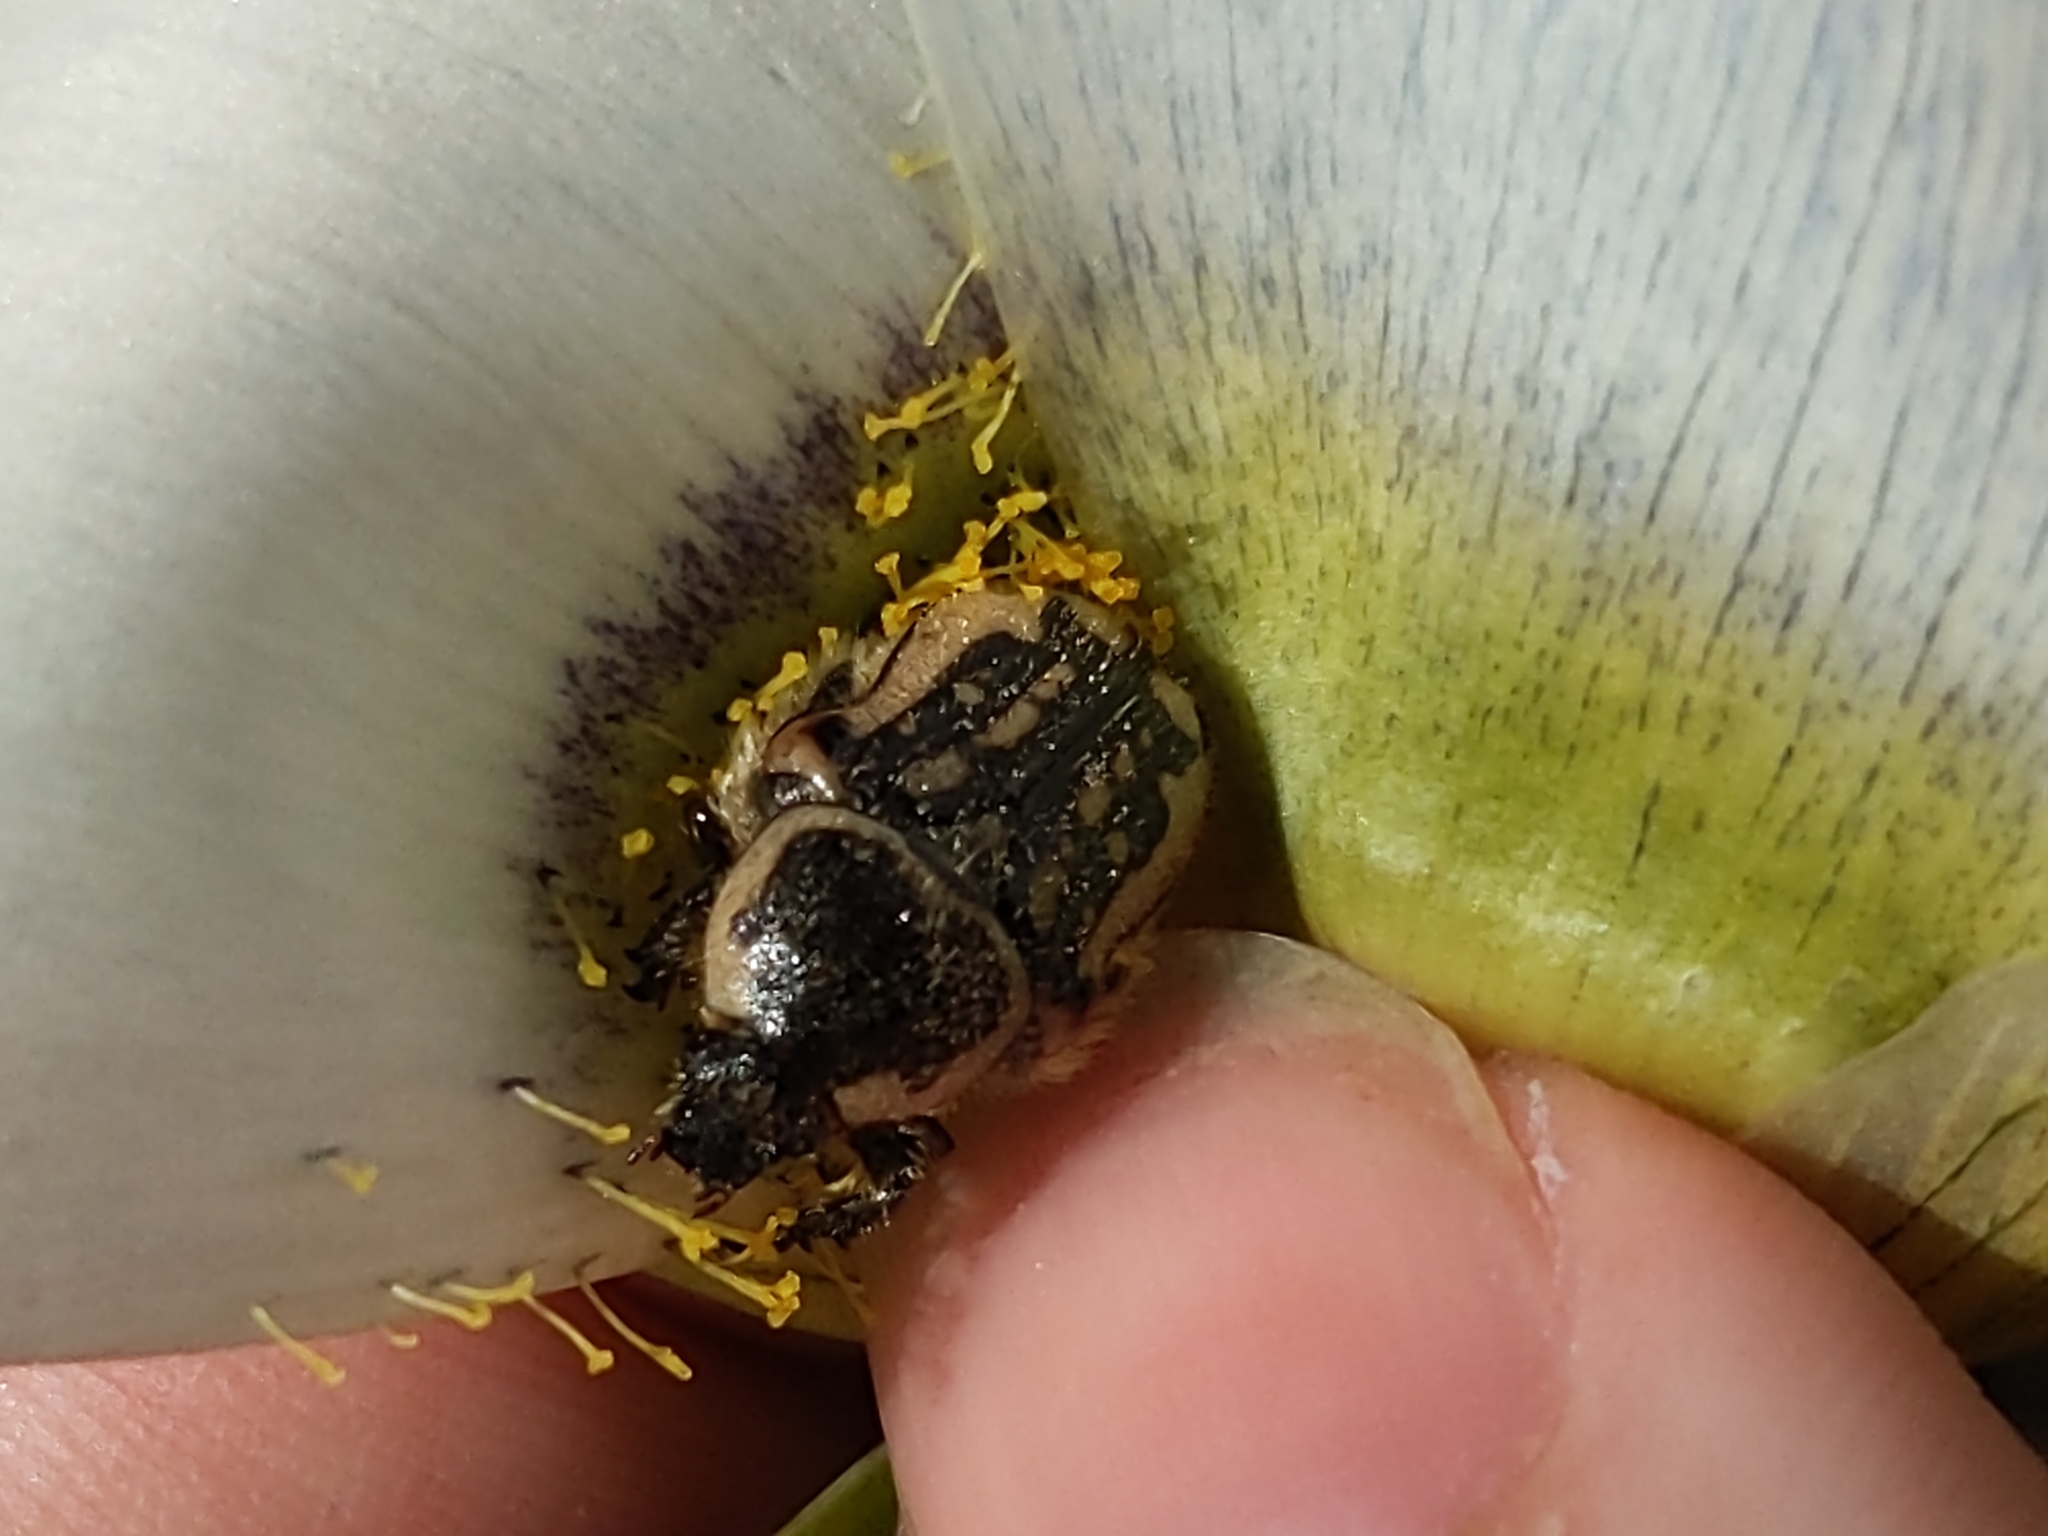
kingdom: Animalia
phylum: Arthropoda
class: Insecta
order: Coleoptera
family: Scarabaeidae
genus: Euphoria
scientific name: Euphoria kernii
